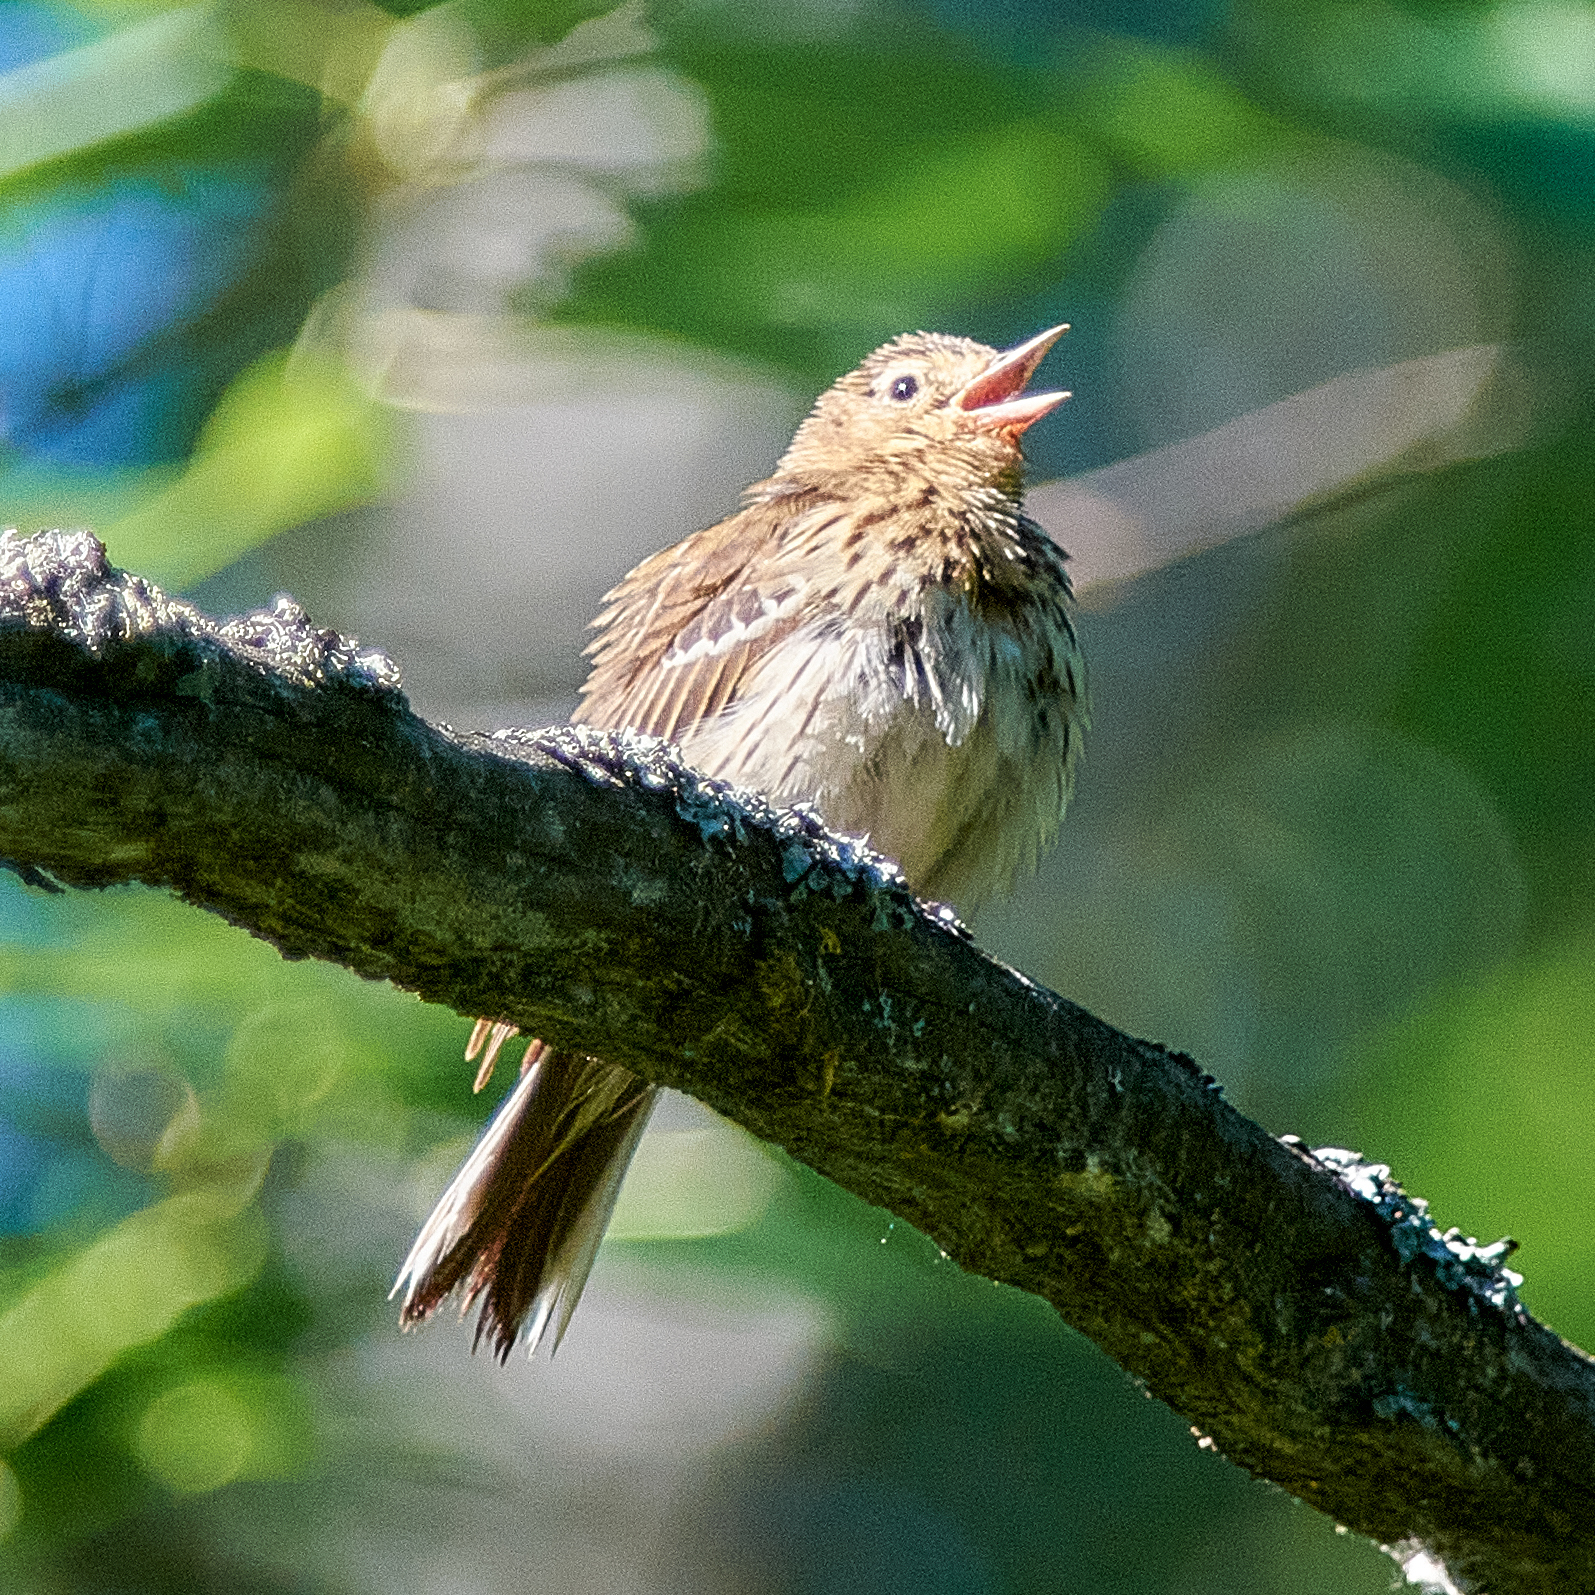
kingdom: Animalia
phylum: Chordata
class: Aves
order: Passeriformes
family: Motacillidae
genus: Anthus
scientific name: Anthus trivialis
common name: Tree pipit
